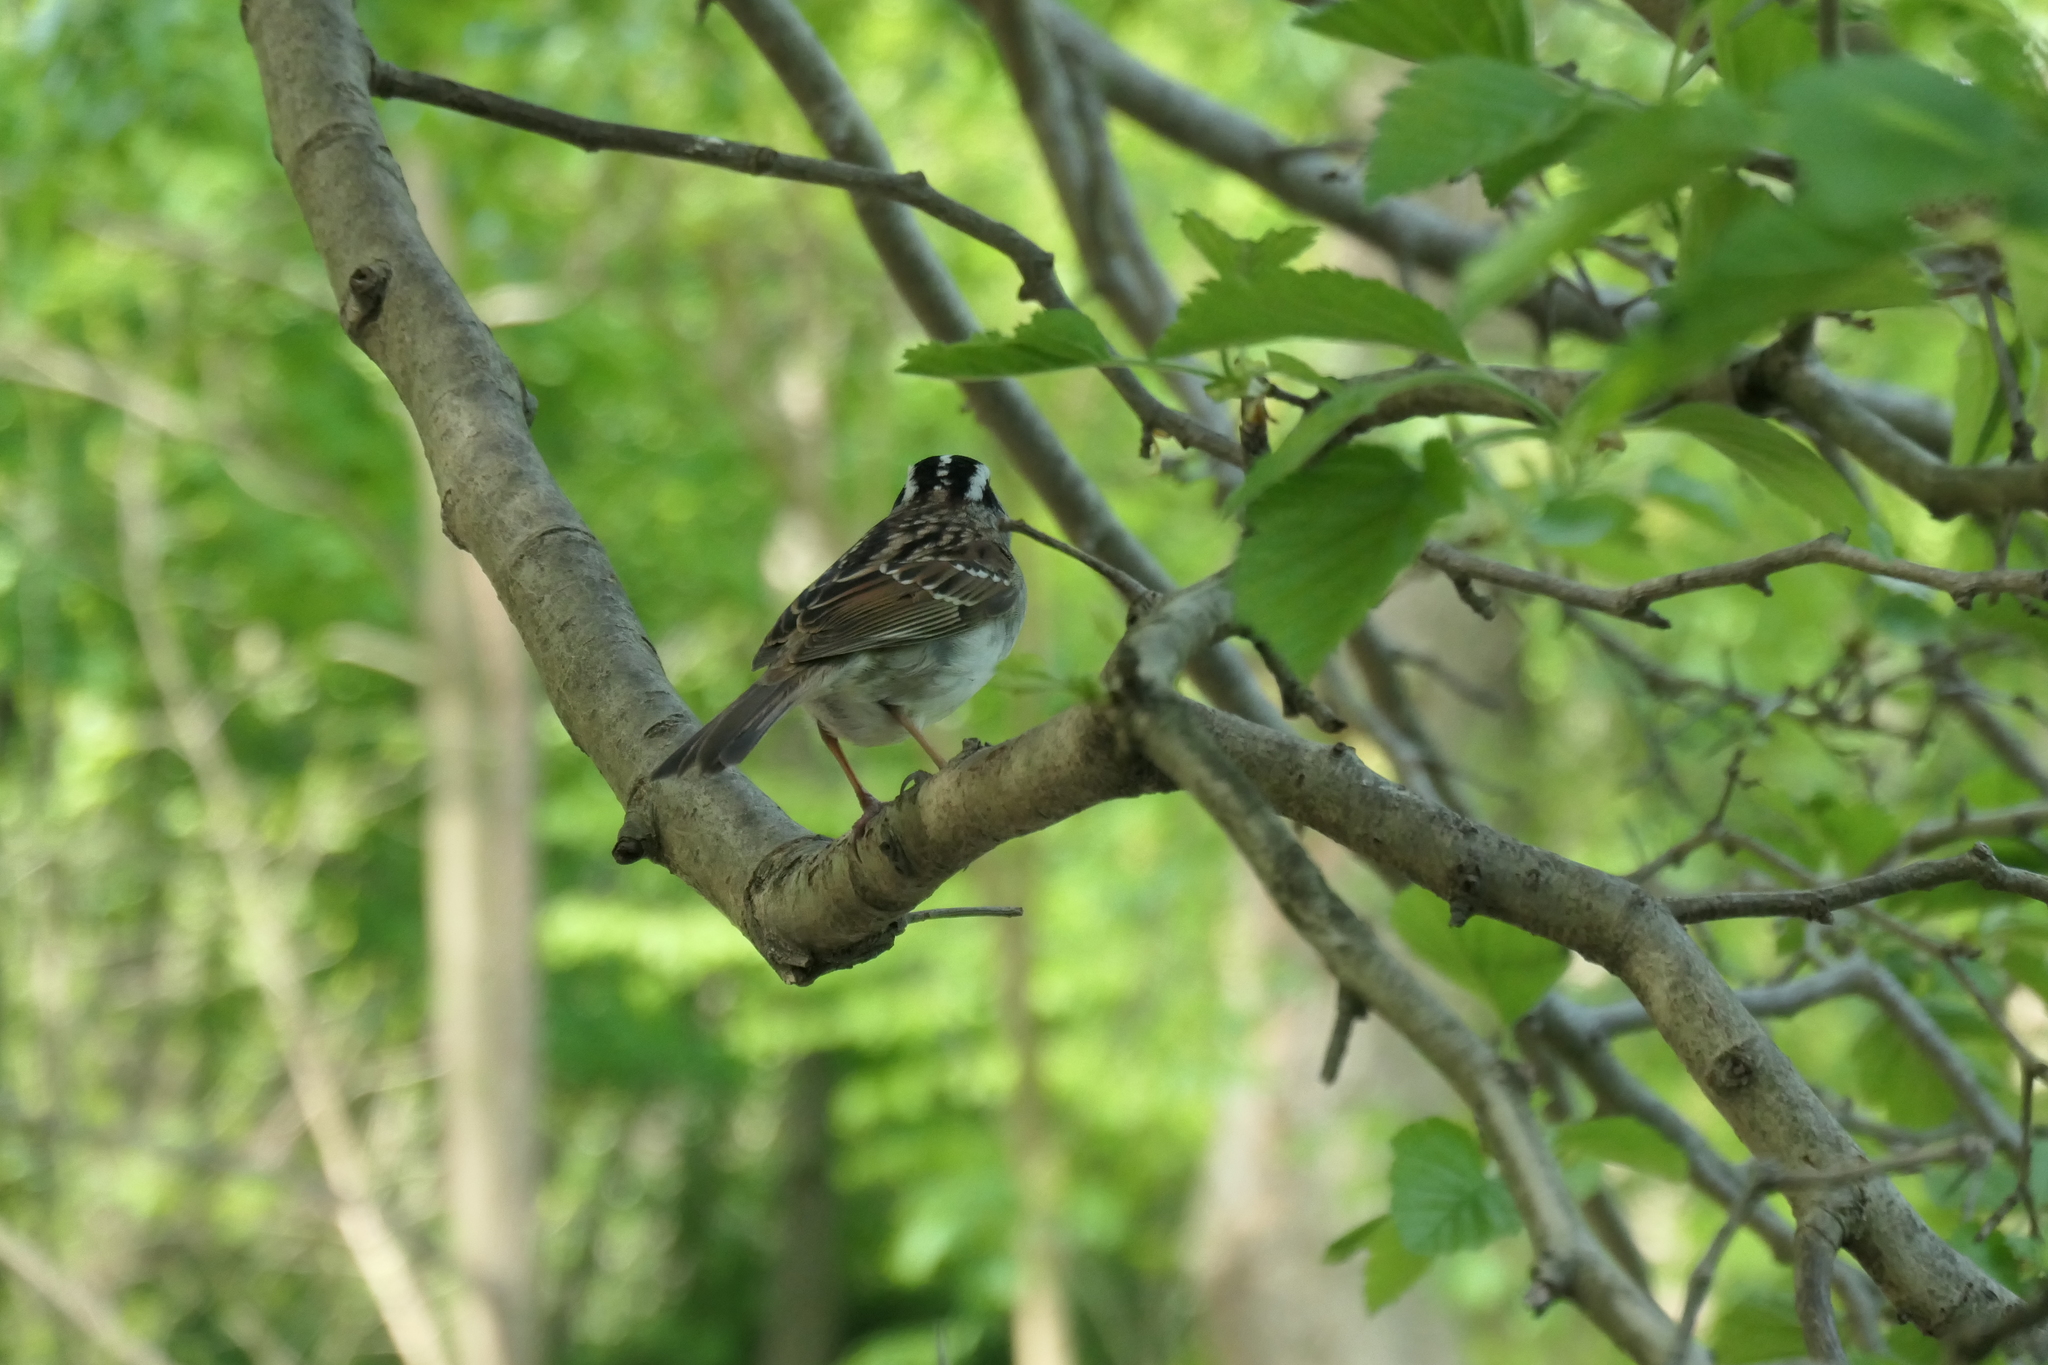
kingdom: Animalia
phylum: Chordata
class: Aves
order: Passeriformes
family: Passerellidae
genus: Zonotrichia
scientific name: Zonotrichia albicollis
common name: White-throated sparrow
